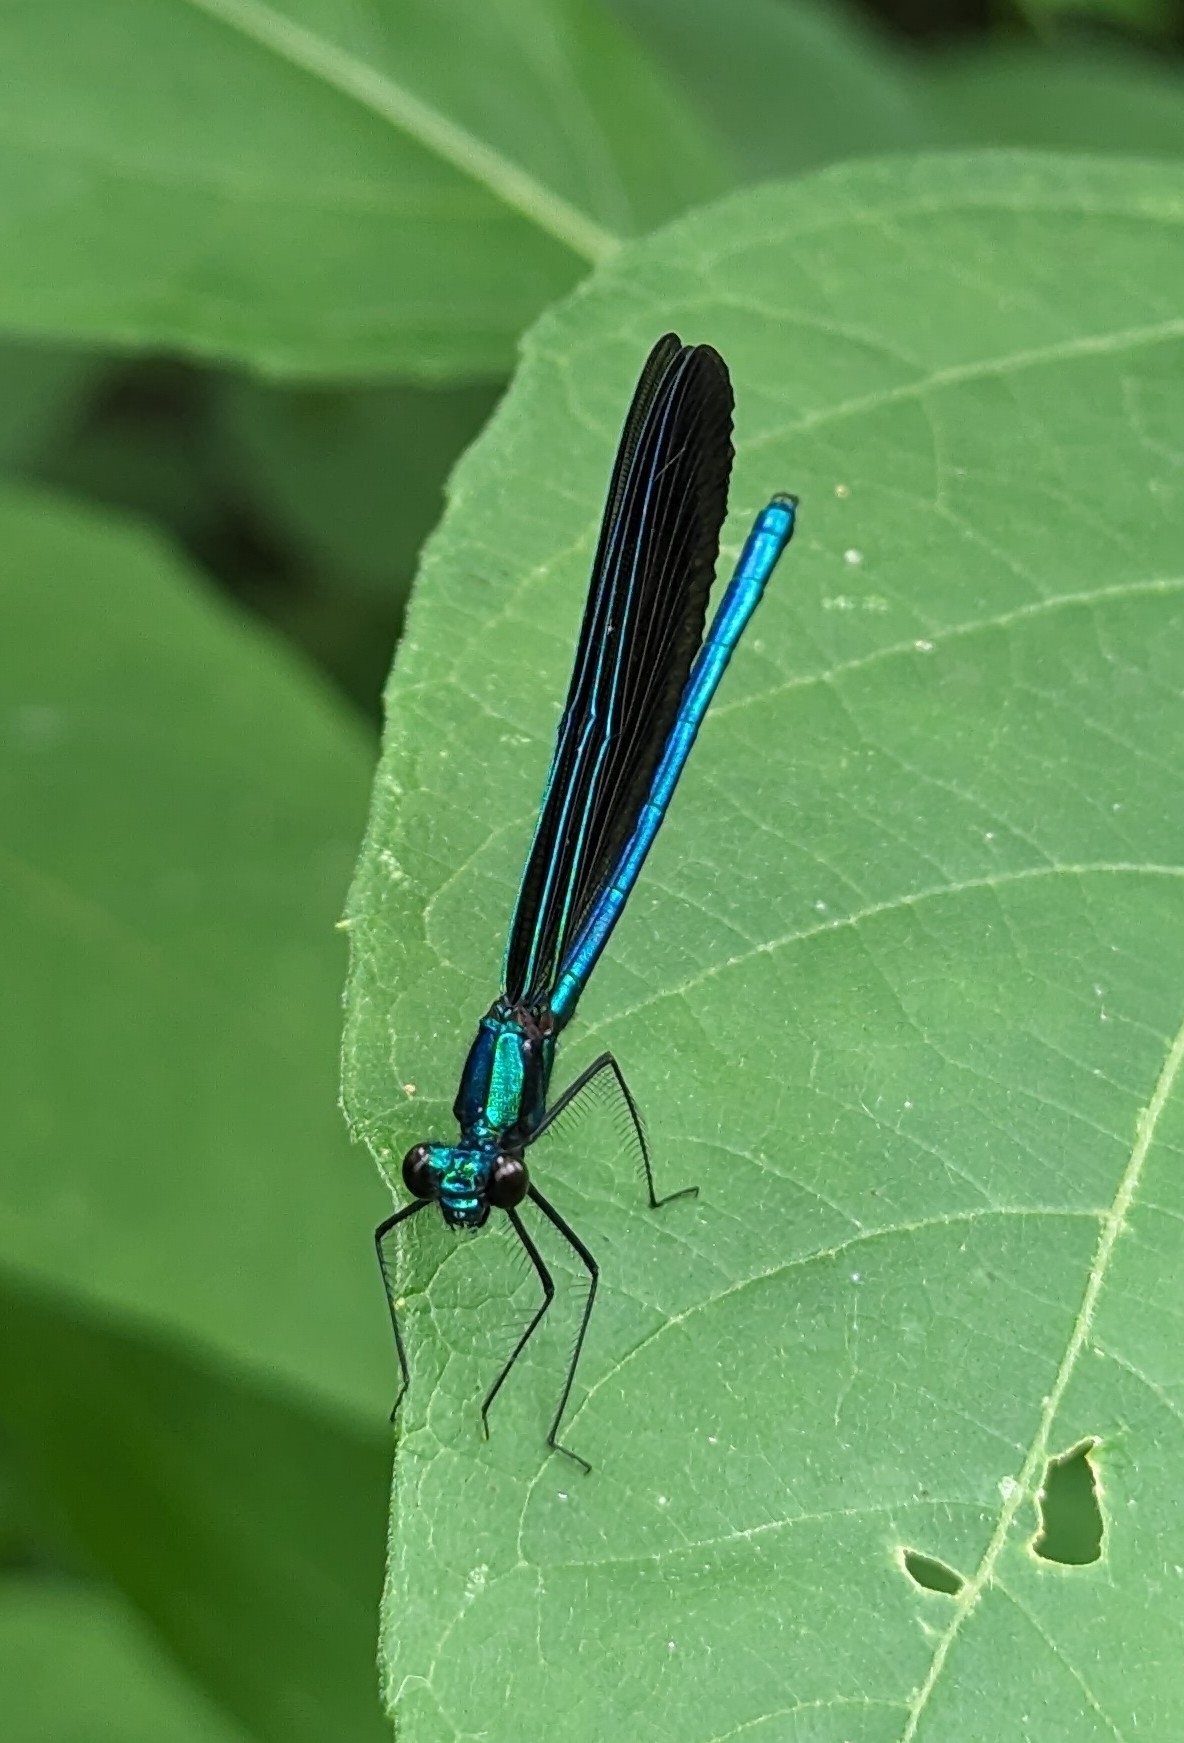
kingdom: Animalia
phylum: Arthropoda
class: Insecta
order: Odonata
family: Calopterygidae
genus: Calopteryx
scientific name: Calopteryx maculata
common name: Ebony jewelwing
